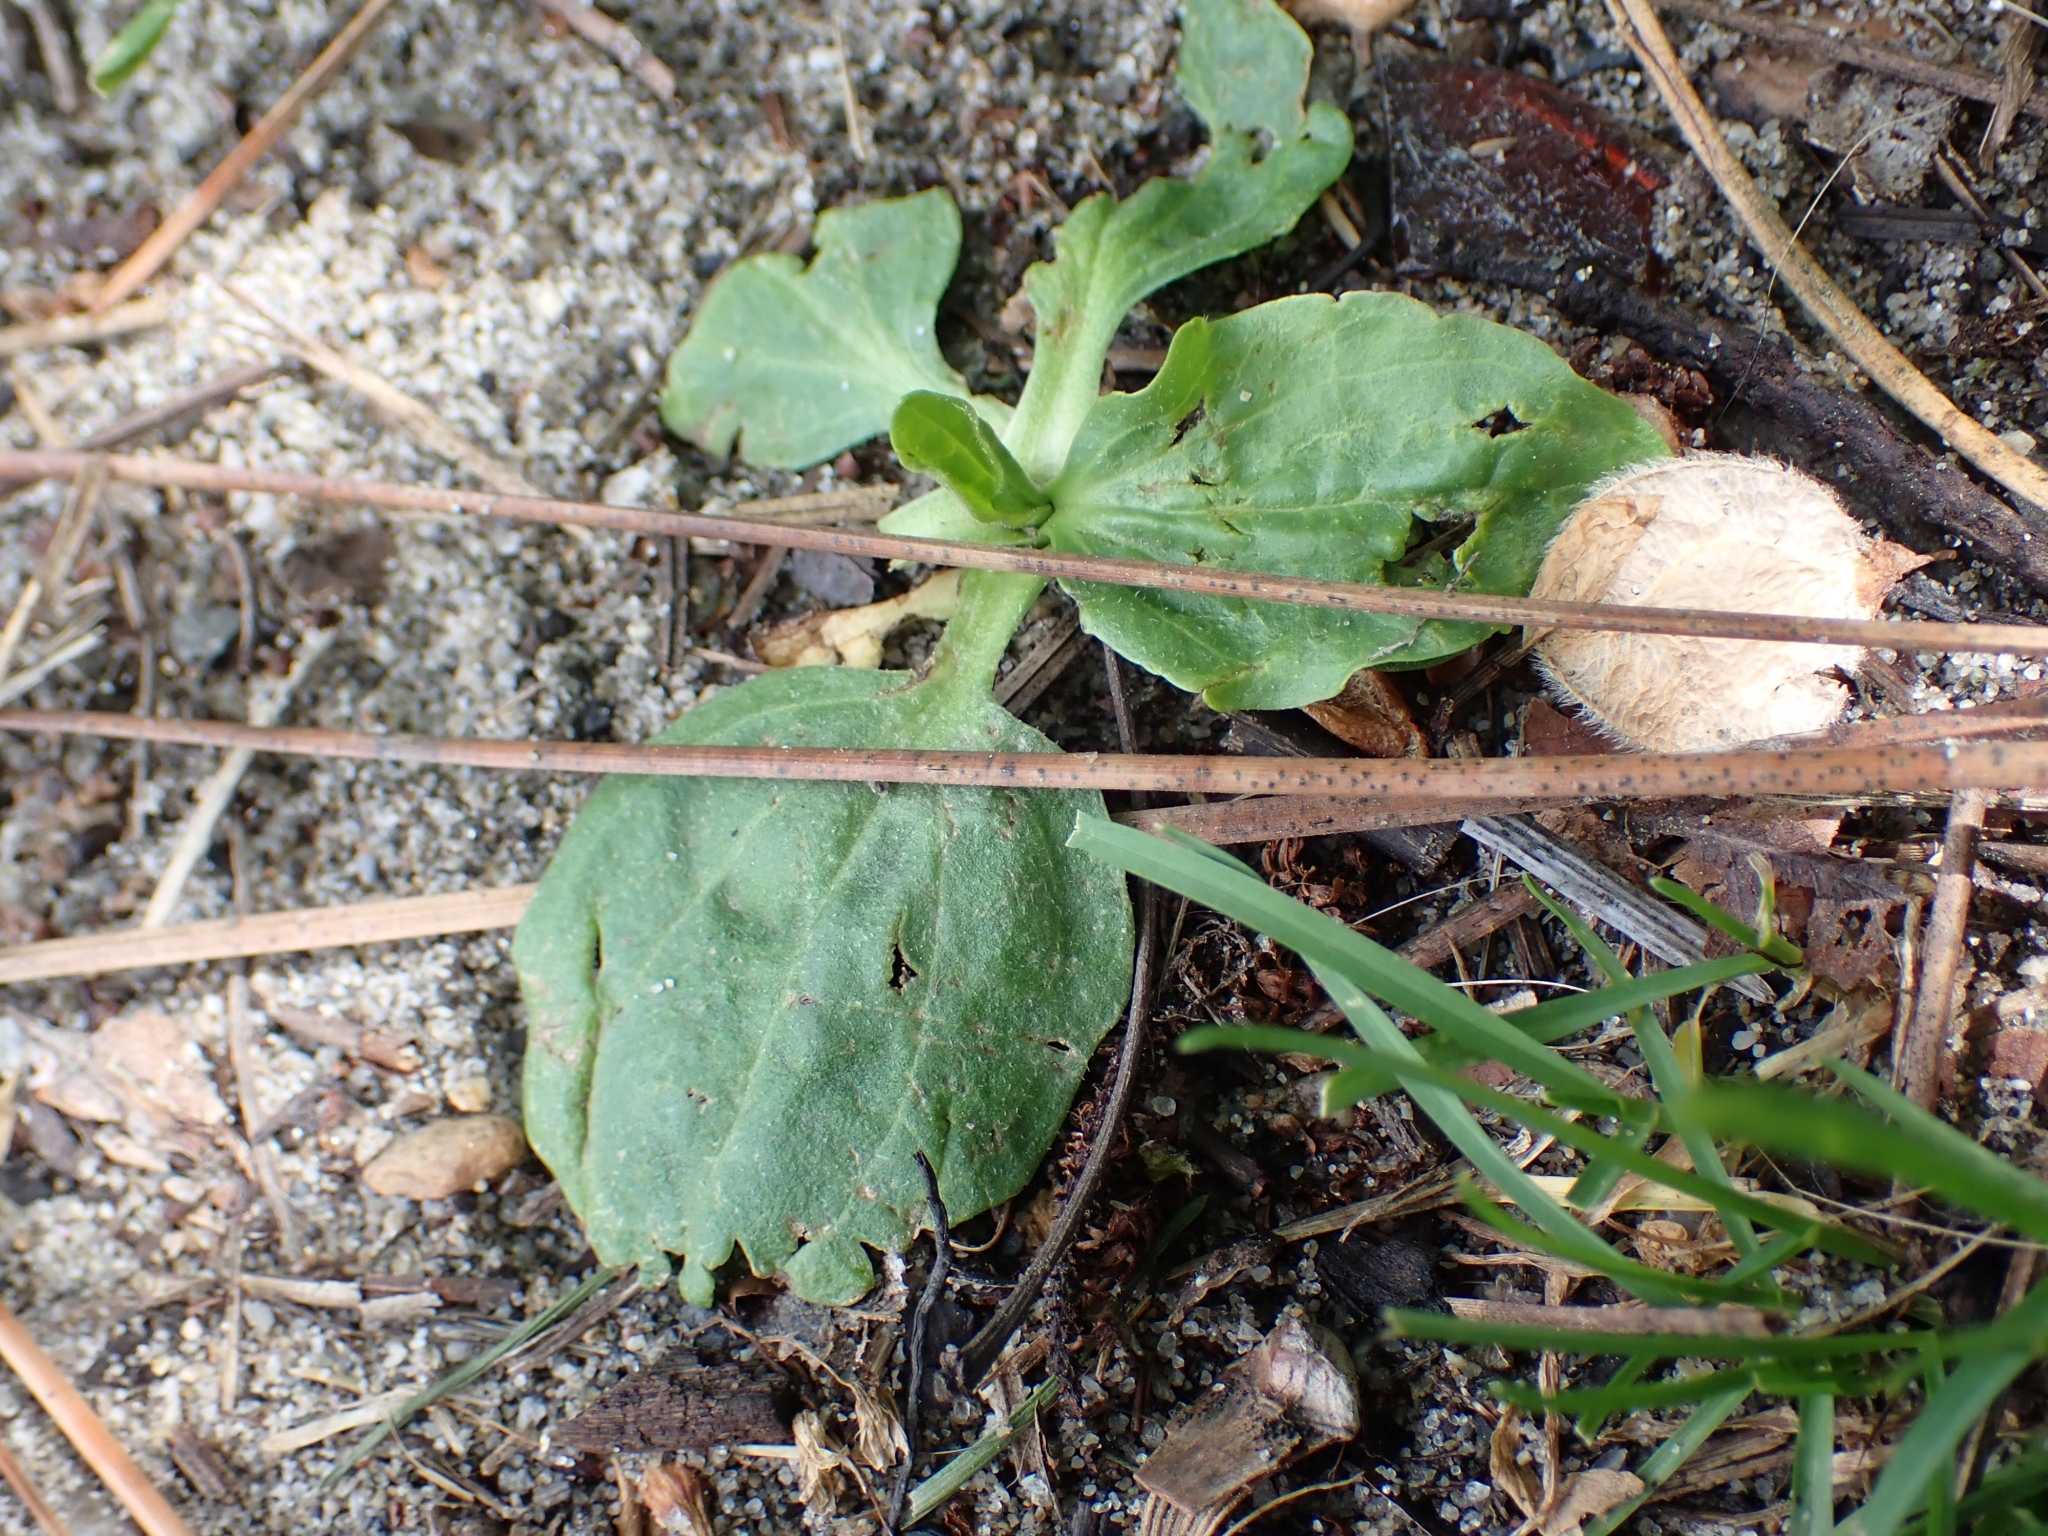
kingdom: Plantae
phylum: Tracheophyta
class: Magnoliopsida
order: Lamiales
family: Plantaginaceae
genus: Plantago
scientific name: Plantago major
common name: Common plantain
